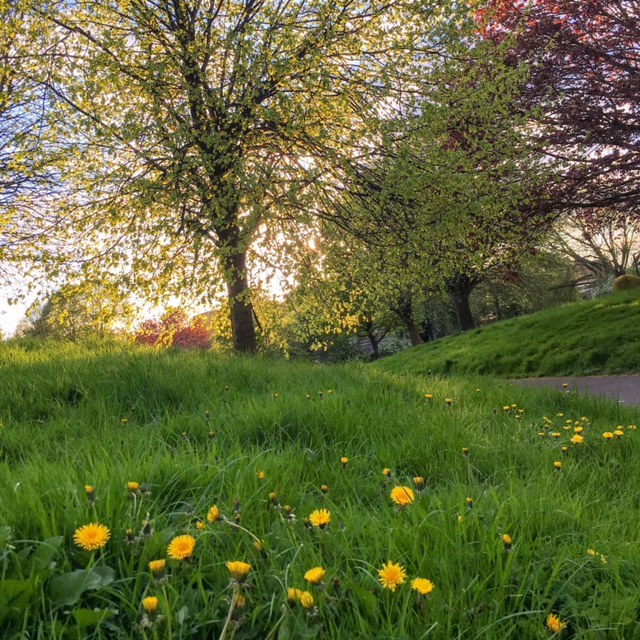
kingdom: Plantae
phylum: Tracheophyta
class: Magnoliopsida
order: Asterales
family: Asteraceae
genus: Taraxacum
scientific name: Taraxacum officinale
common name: Common dandelion
